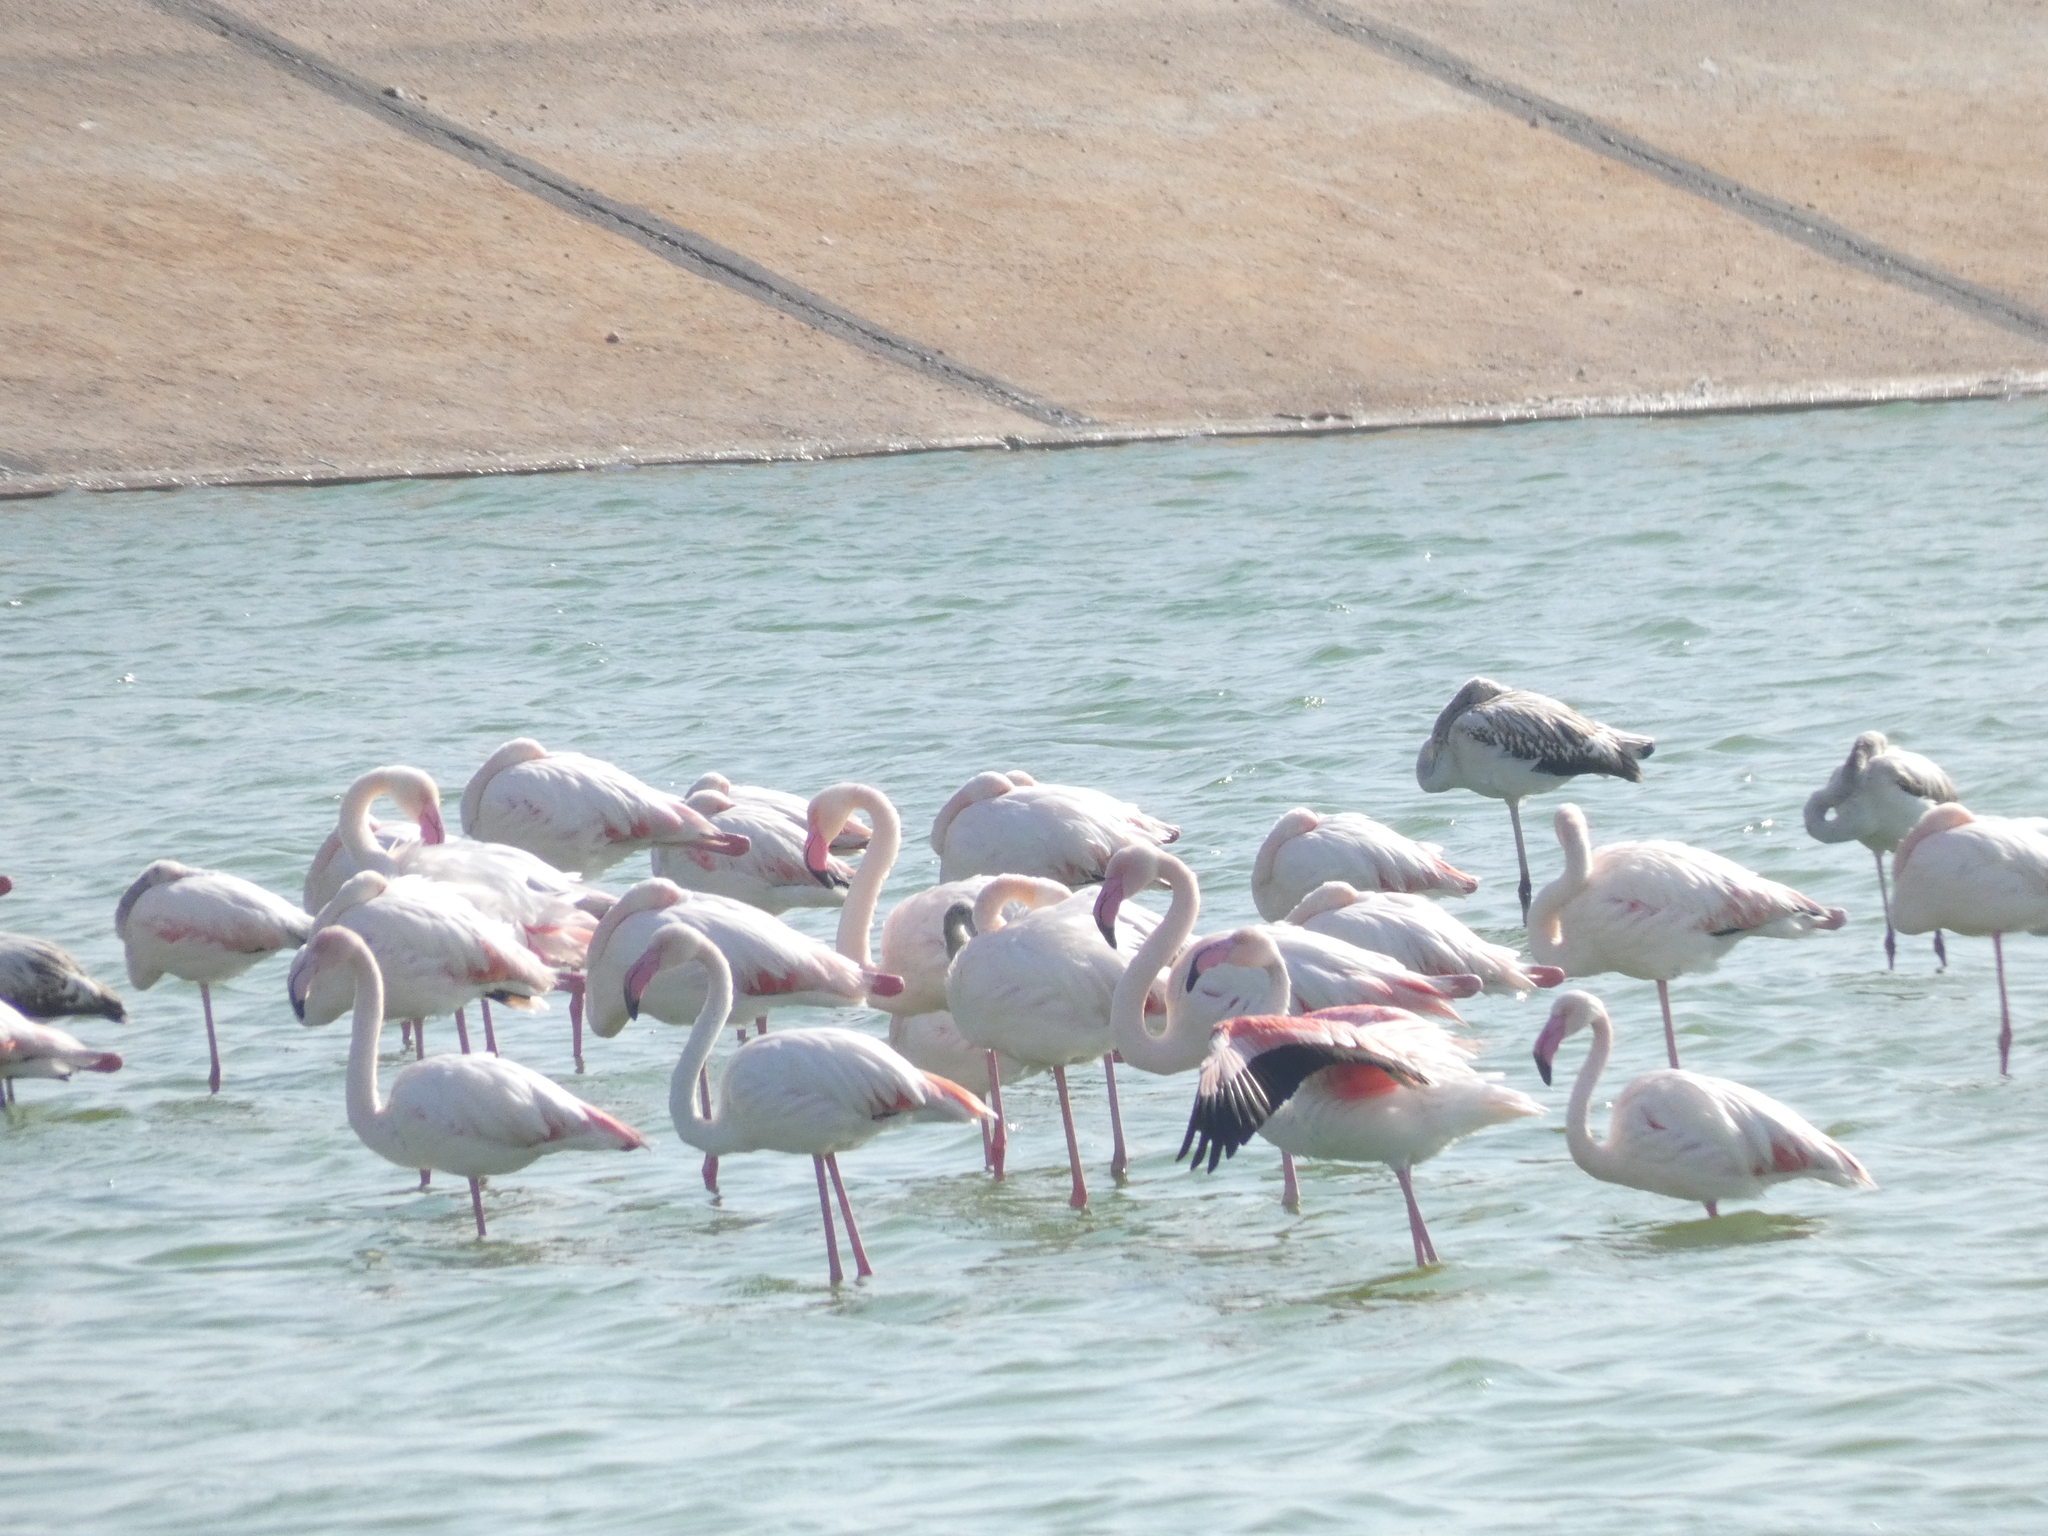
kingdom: Animalia
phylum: Chordata
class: Aves
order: Phoenicopteriformes
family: Phoenicopteridae
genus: Phoenicopterus
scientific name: Phoenicopterus roseus
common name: Greater flamingo
